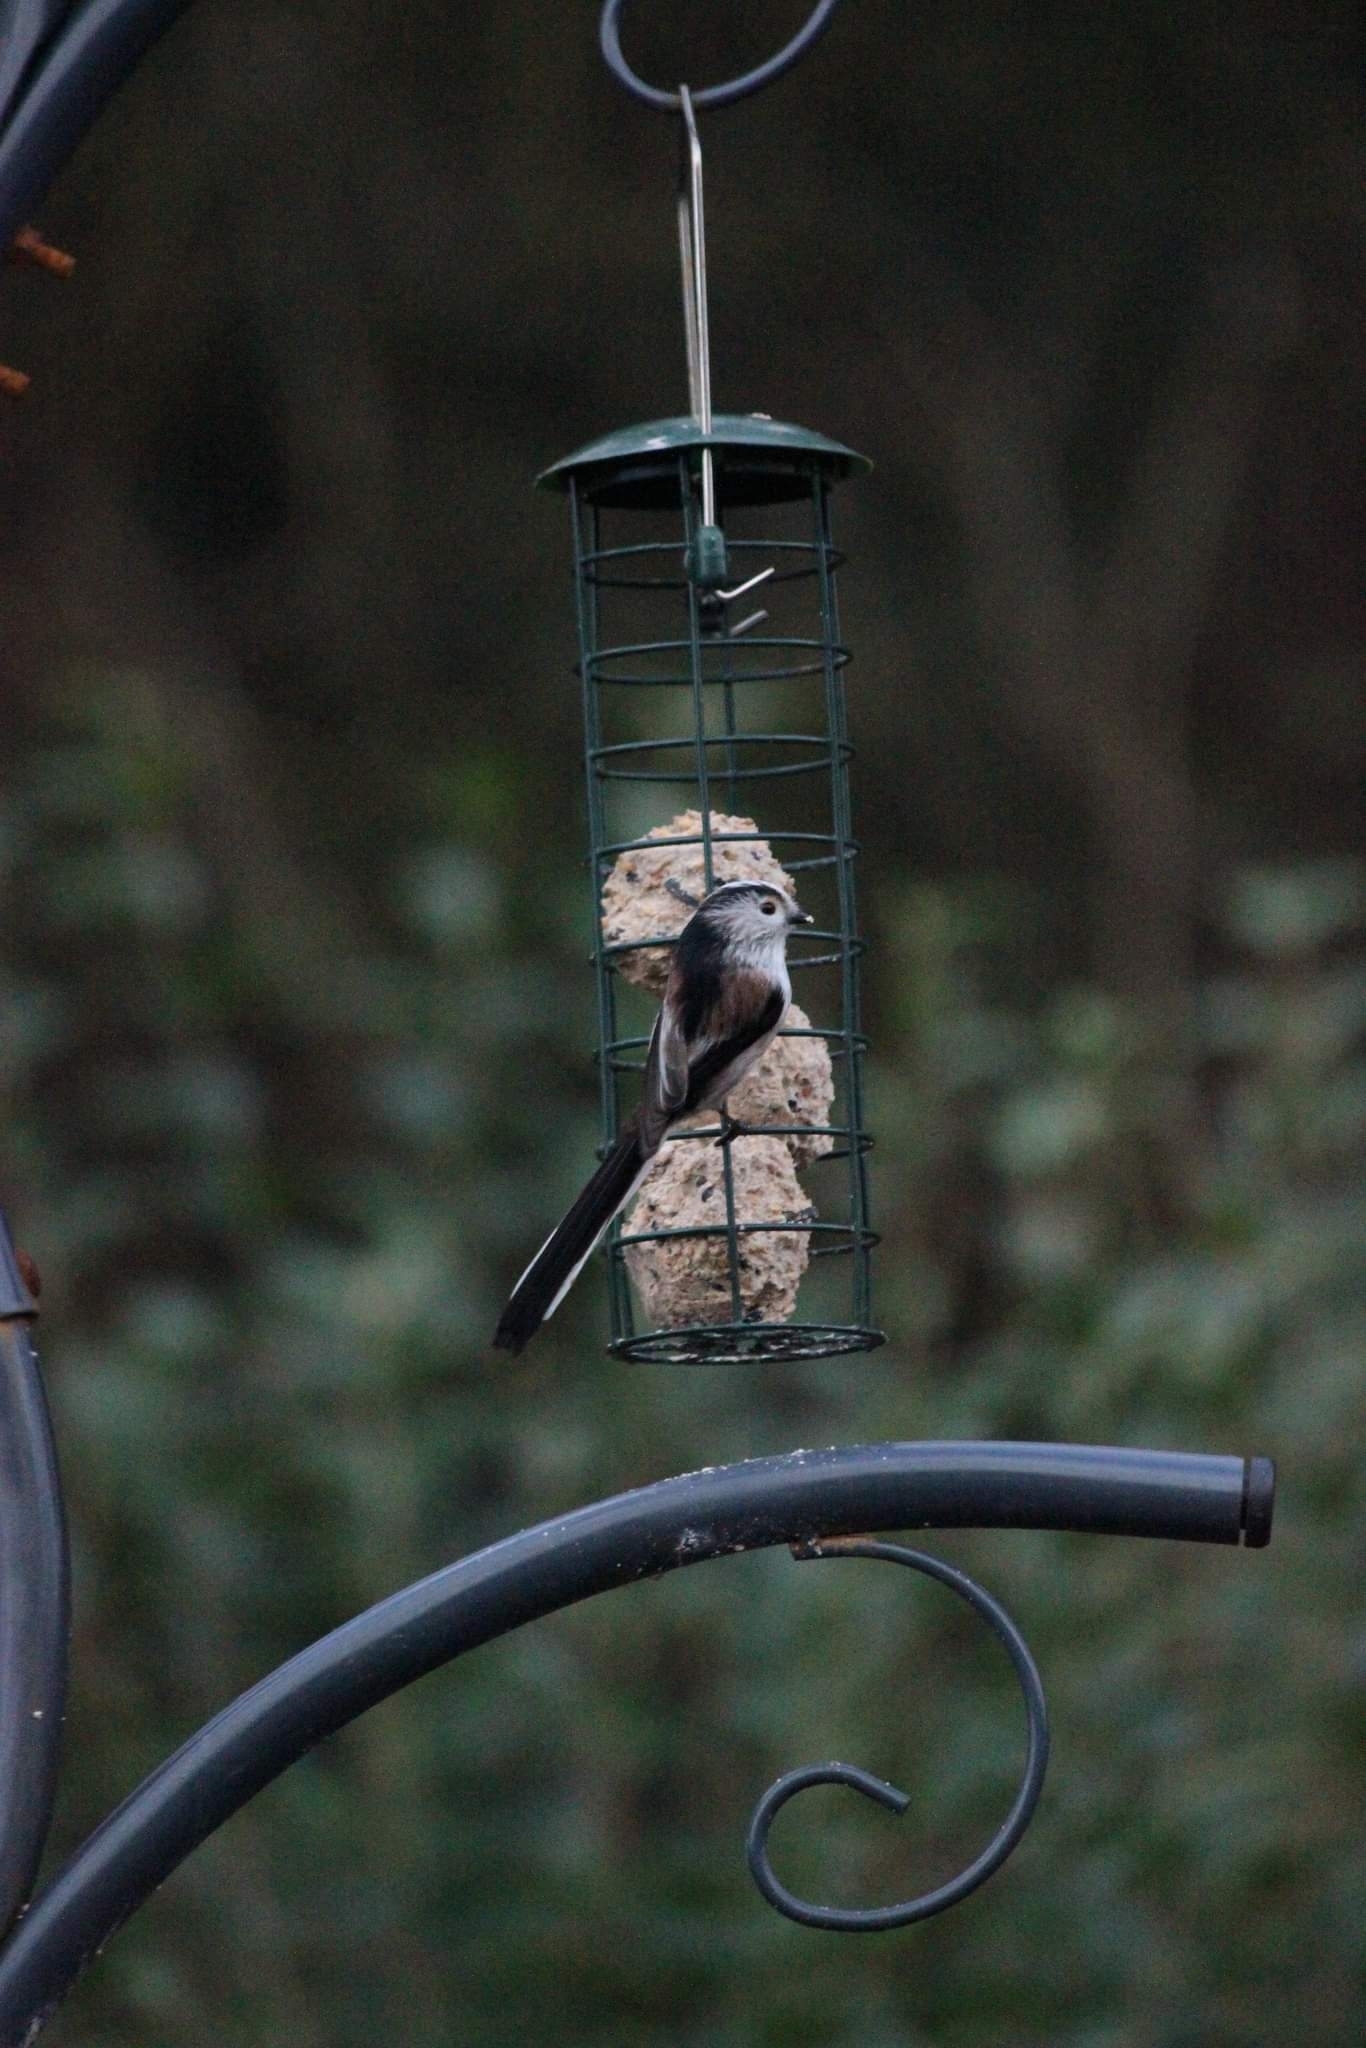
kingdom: Animalia
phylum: Chordata
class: Aves
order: Passeriformes
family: Aegithalidae
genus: Aegithalos
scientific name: Aegithalos caudatus
